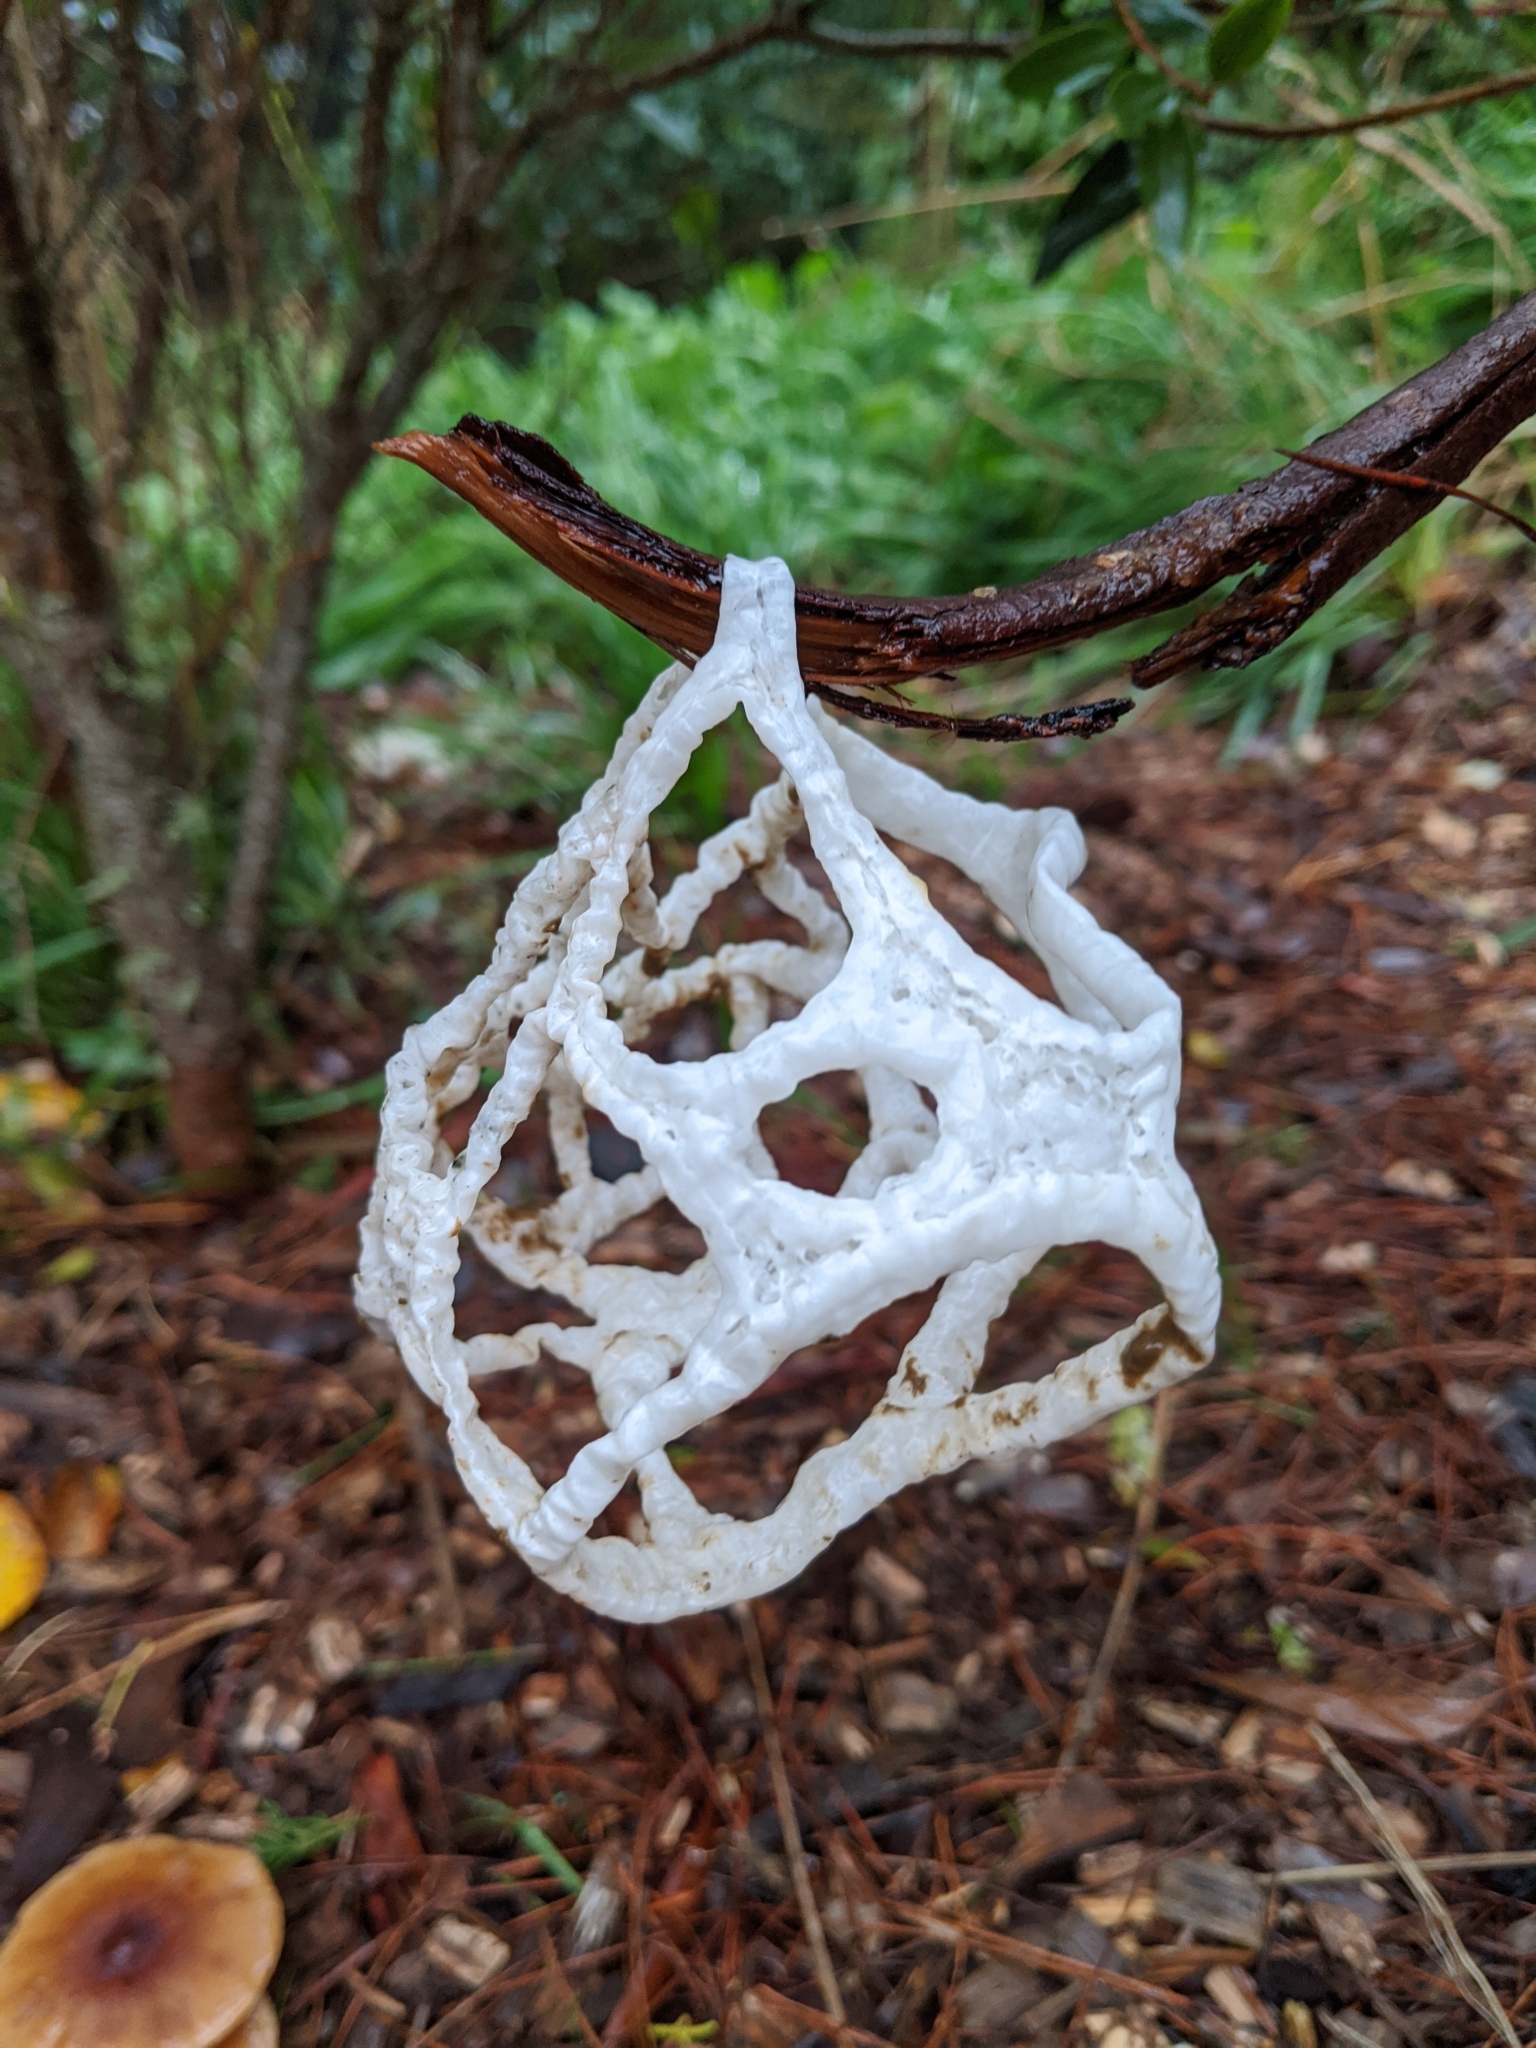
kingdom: Fungi
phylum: Basidiomycota
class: Agaricomycetes
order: Phallales
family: Phallaceae
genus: Ileodictyon
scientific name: Ileodictyon cibarium
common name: Basket fungus
